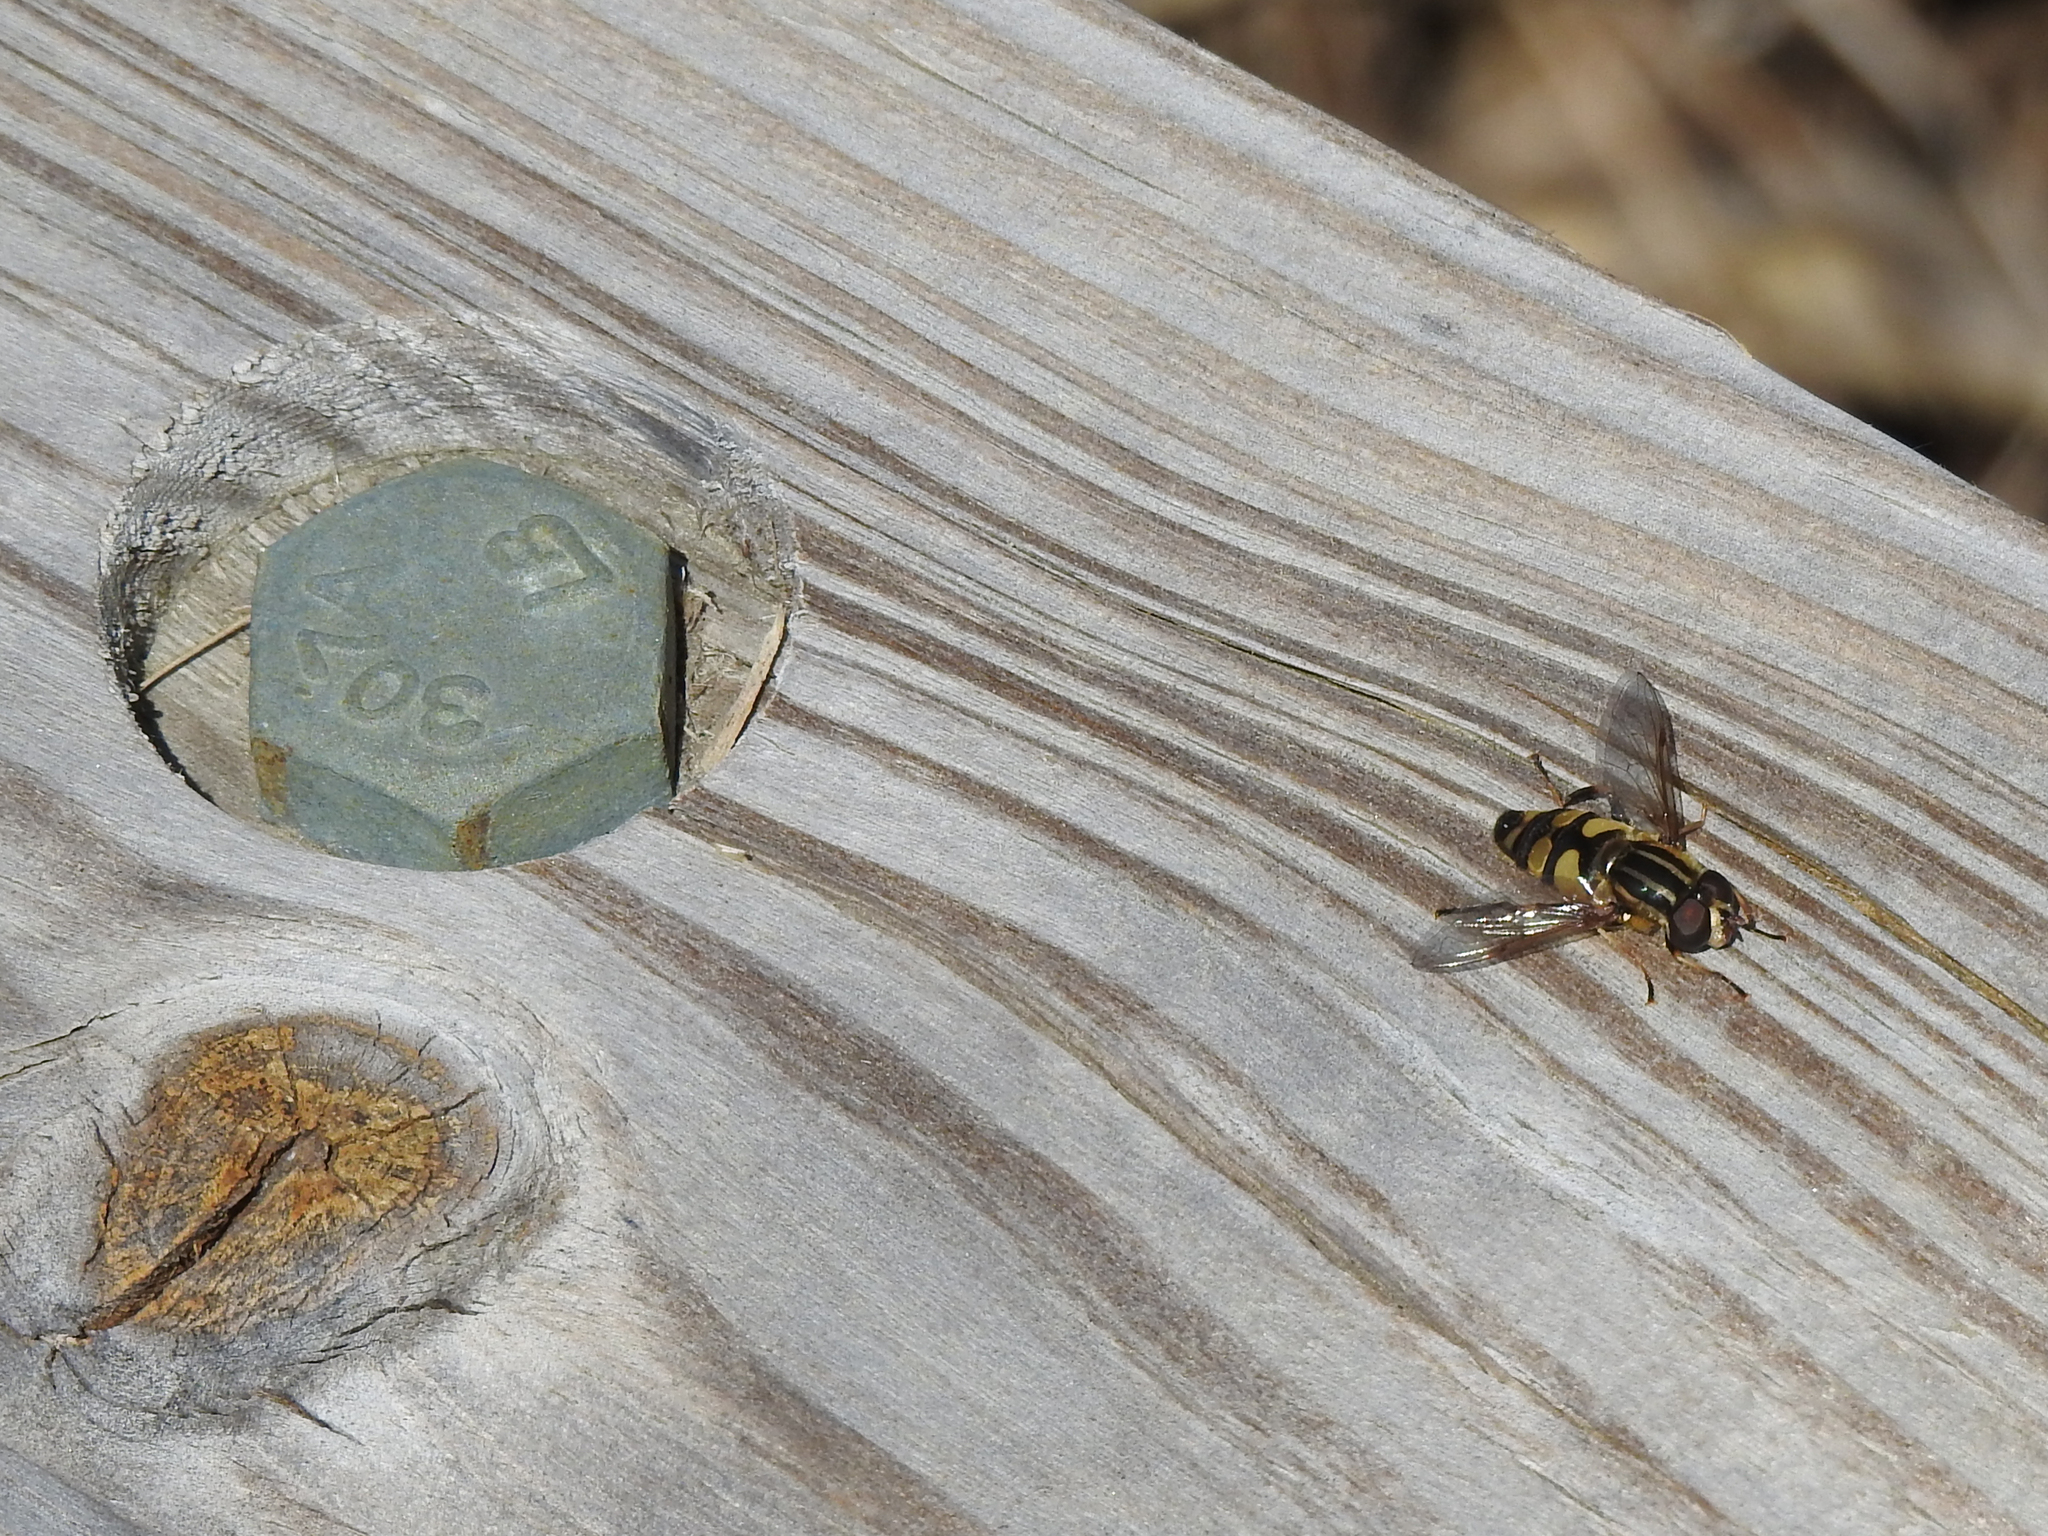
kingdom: Animalia
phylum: Arthropoda
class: Insecta
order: Diptera
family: Syrphidae
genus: Helophilus
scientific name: Helophilus fasciatus
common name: Narrow-headed marsh fly
